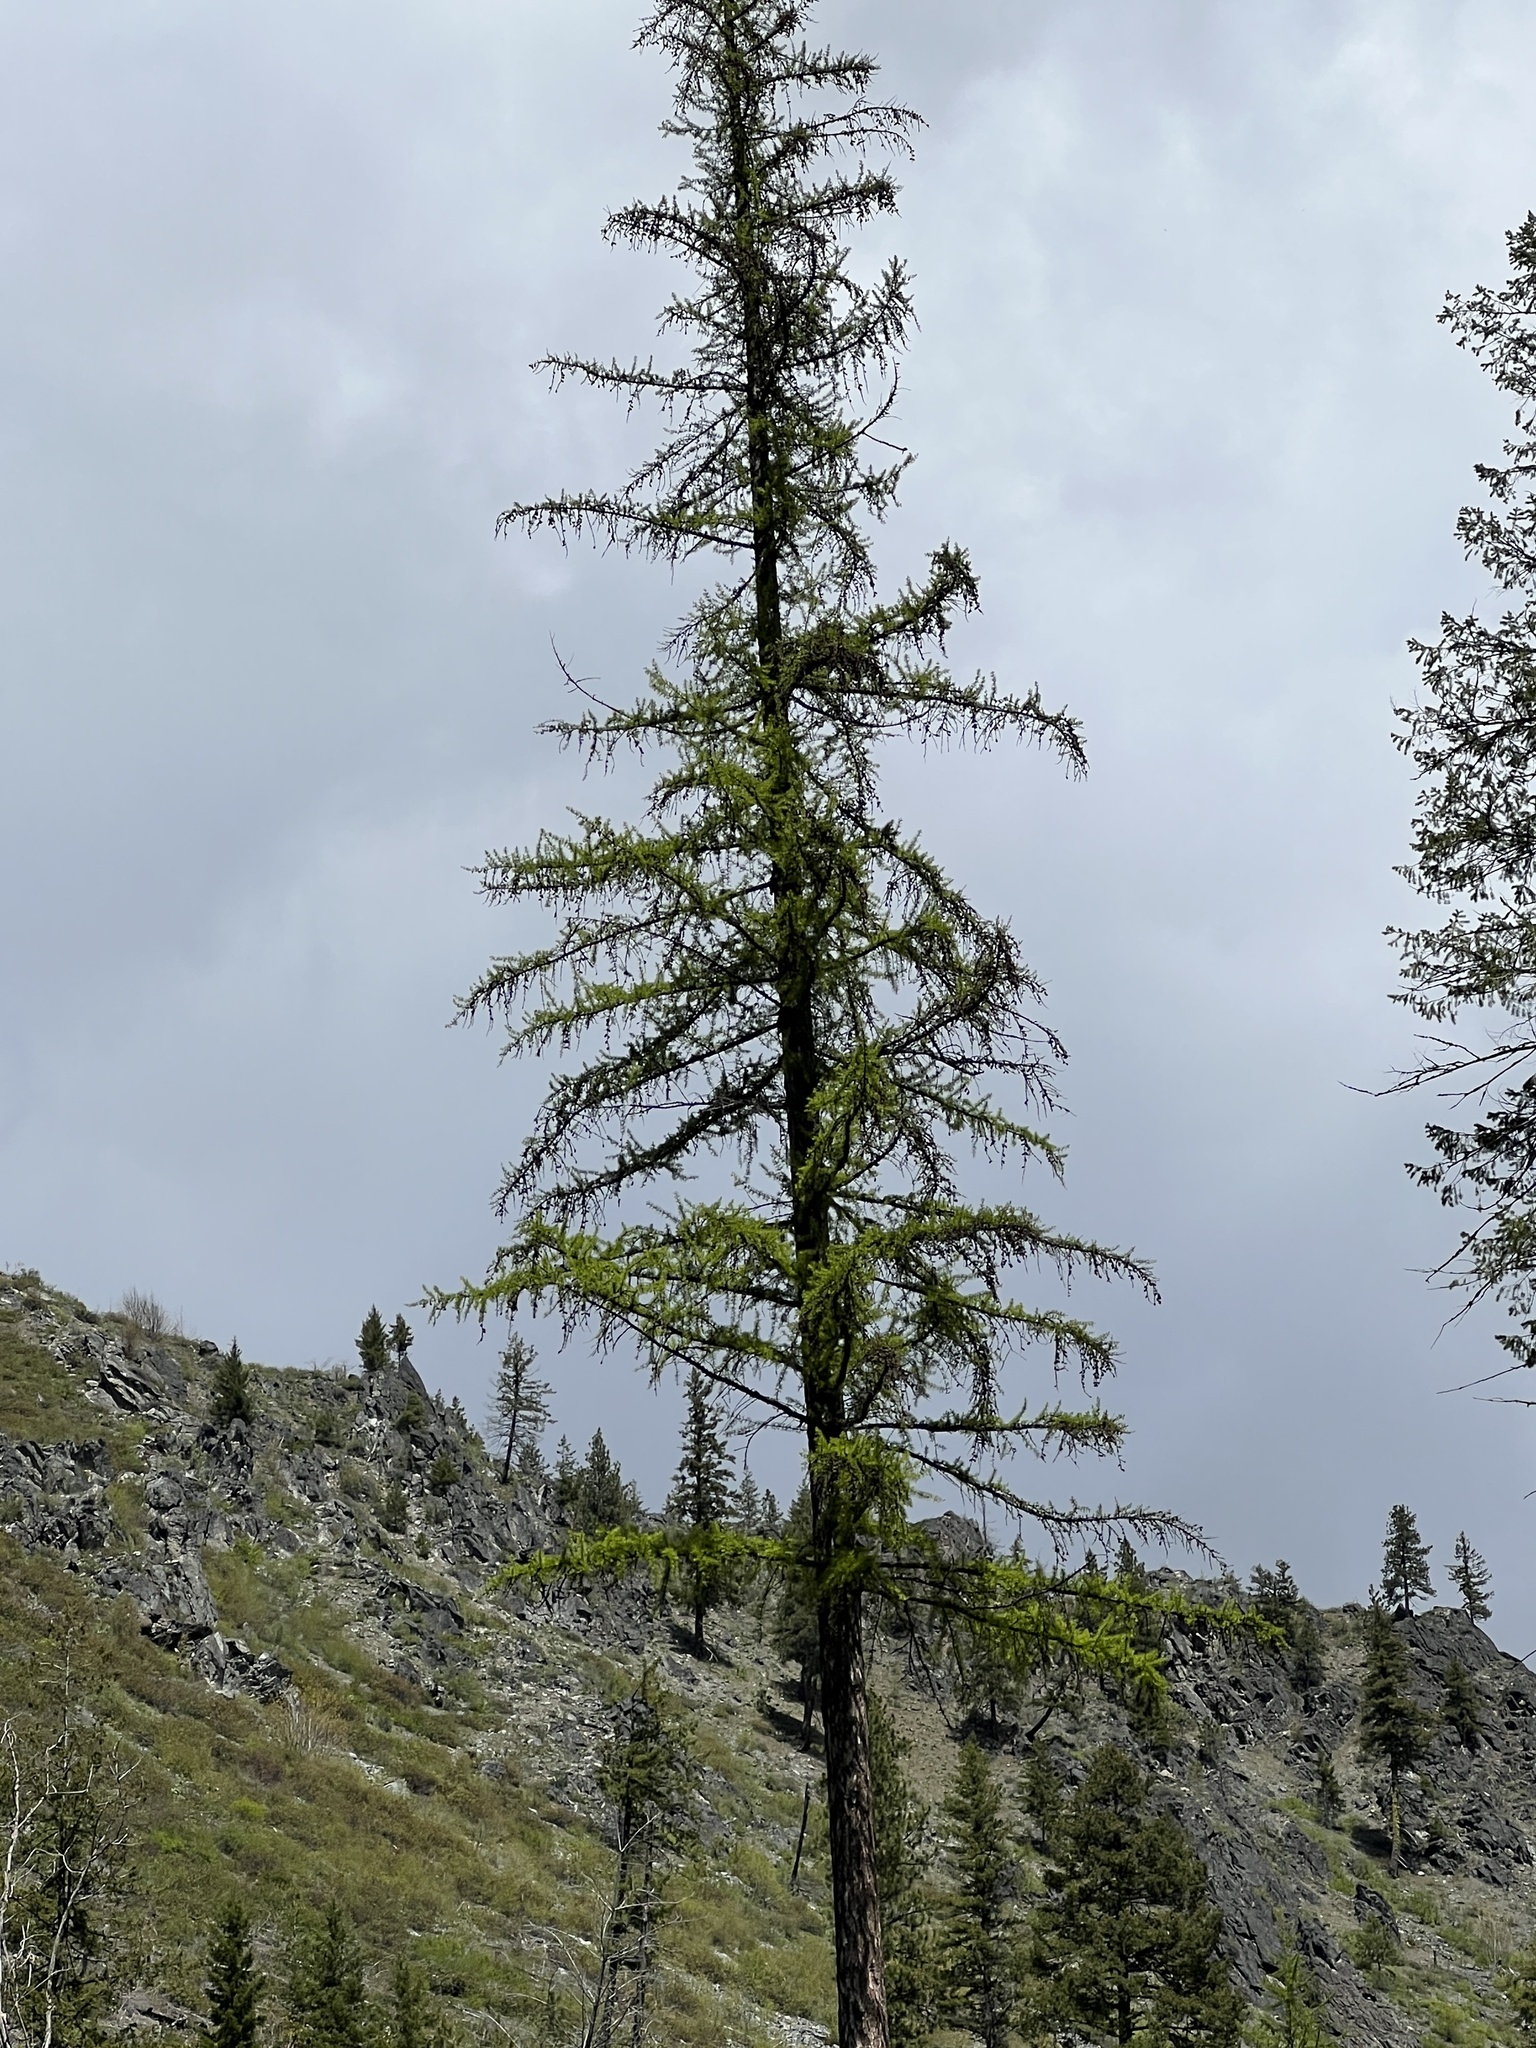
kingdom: Plantae
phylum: Tracheophyta
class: Pinopsida
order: Pinales
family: Pinaceae
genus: Larix
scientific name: Larix occidentalis
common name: Western larch
